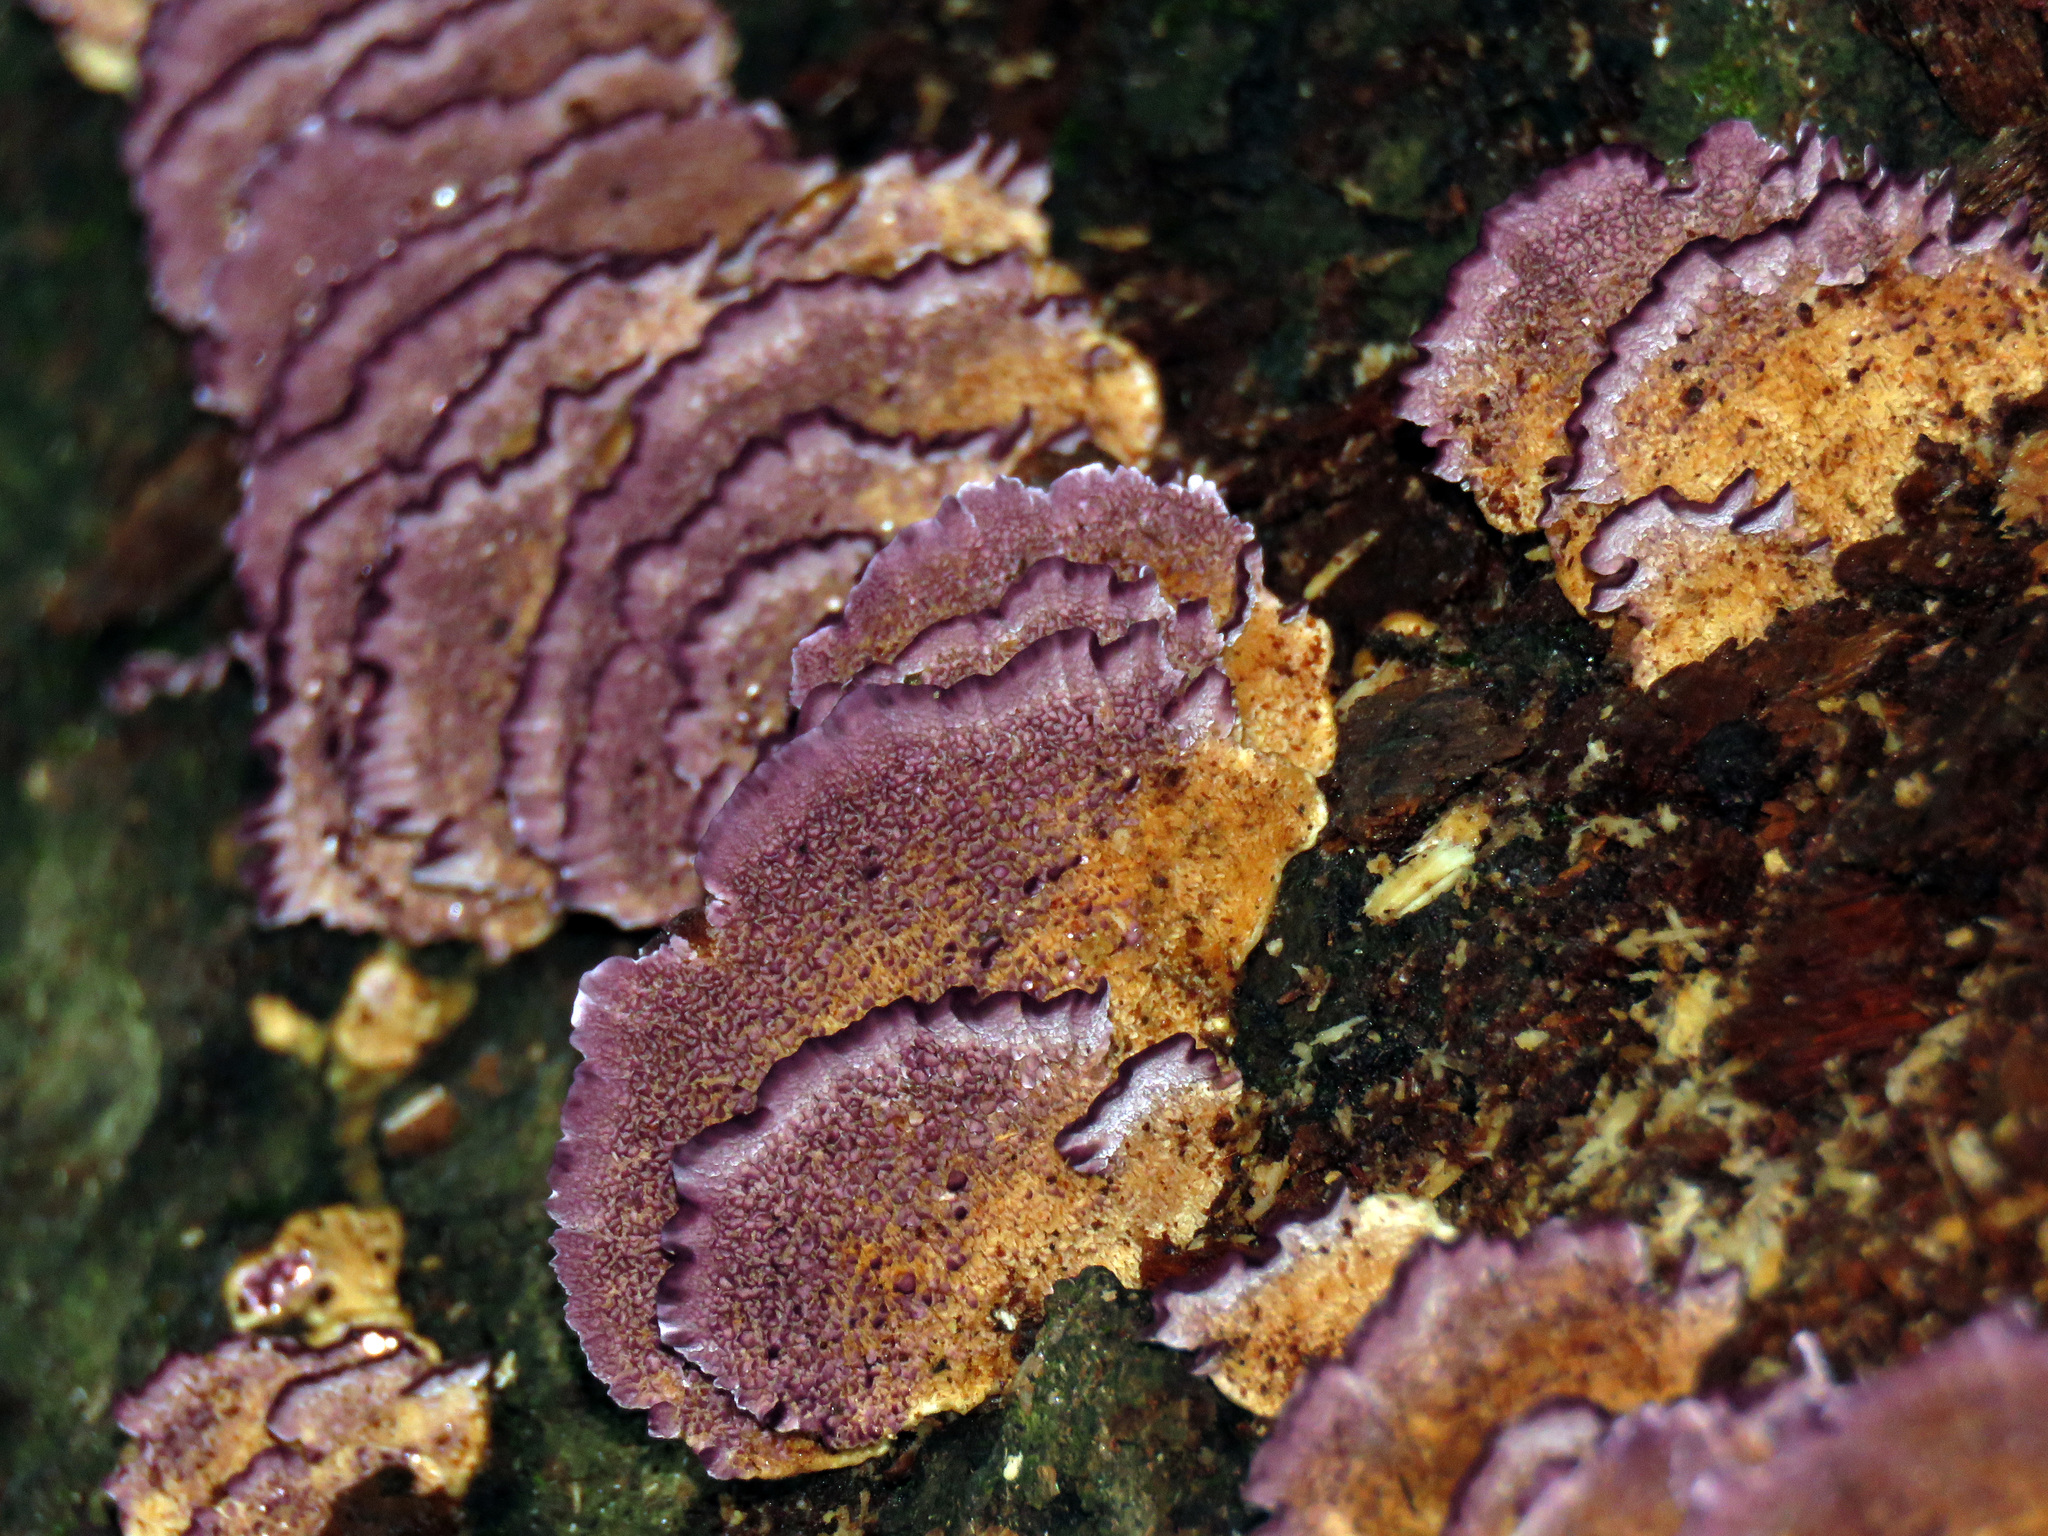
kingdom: Fungi
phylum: Basidiomycota
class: Agaricomycetes
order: Hymenochaetales
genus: Trichaptum
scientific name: Trichaptum biforme
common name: Violet-toothed polypore
